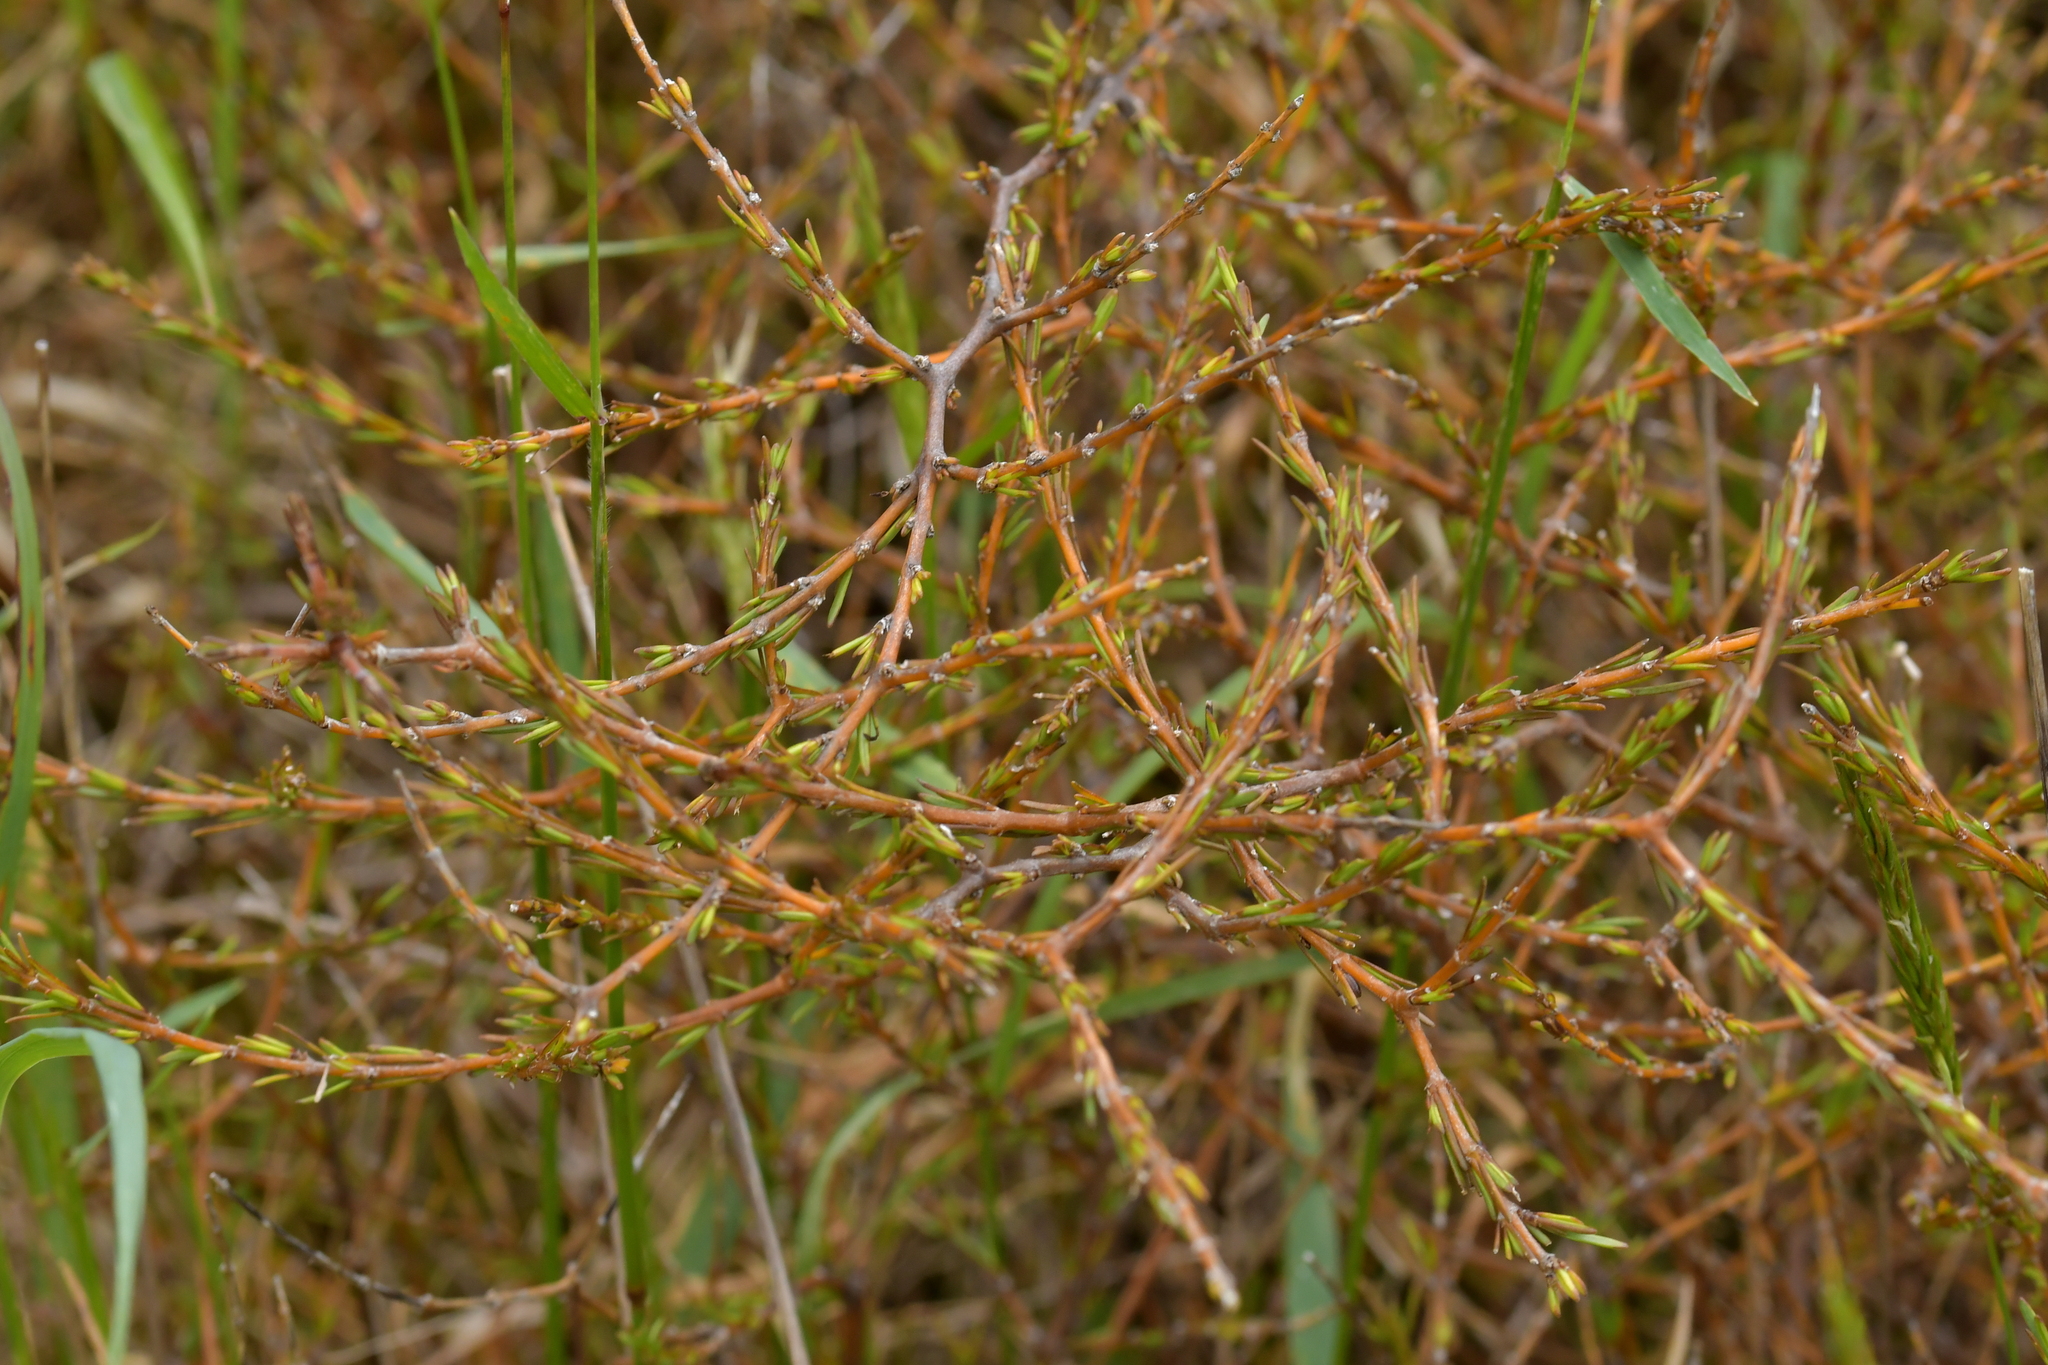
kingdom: Plantae
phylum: Tracheophyta
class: Magnoliopsida
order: Gentianales
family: Rubiaceae
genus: Coprosma
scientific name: Coprosma acerosa
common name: Sand coprosma
